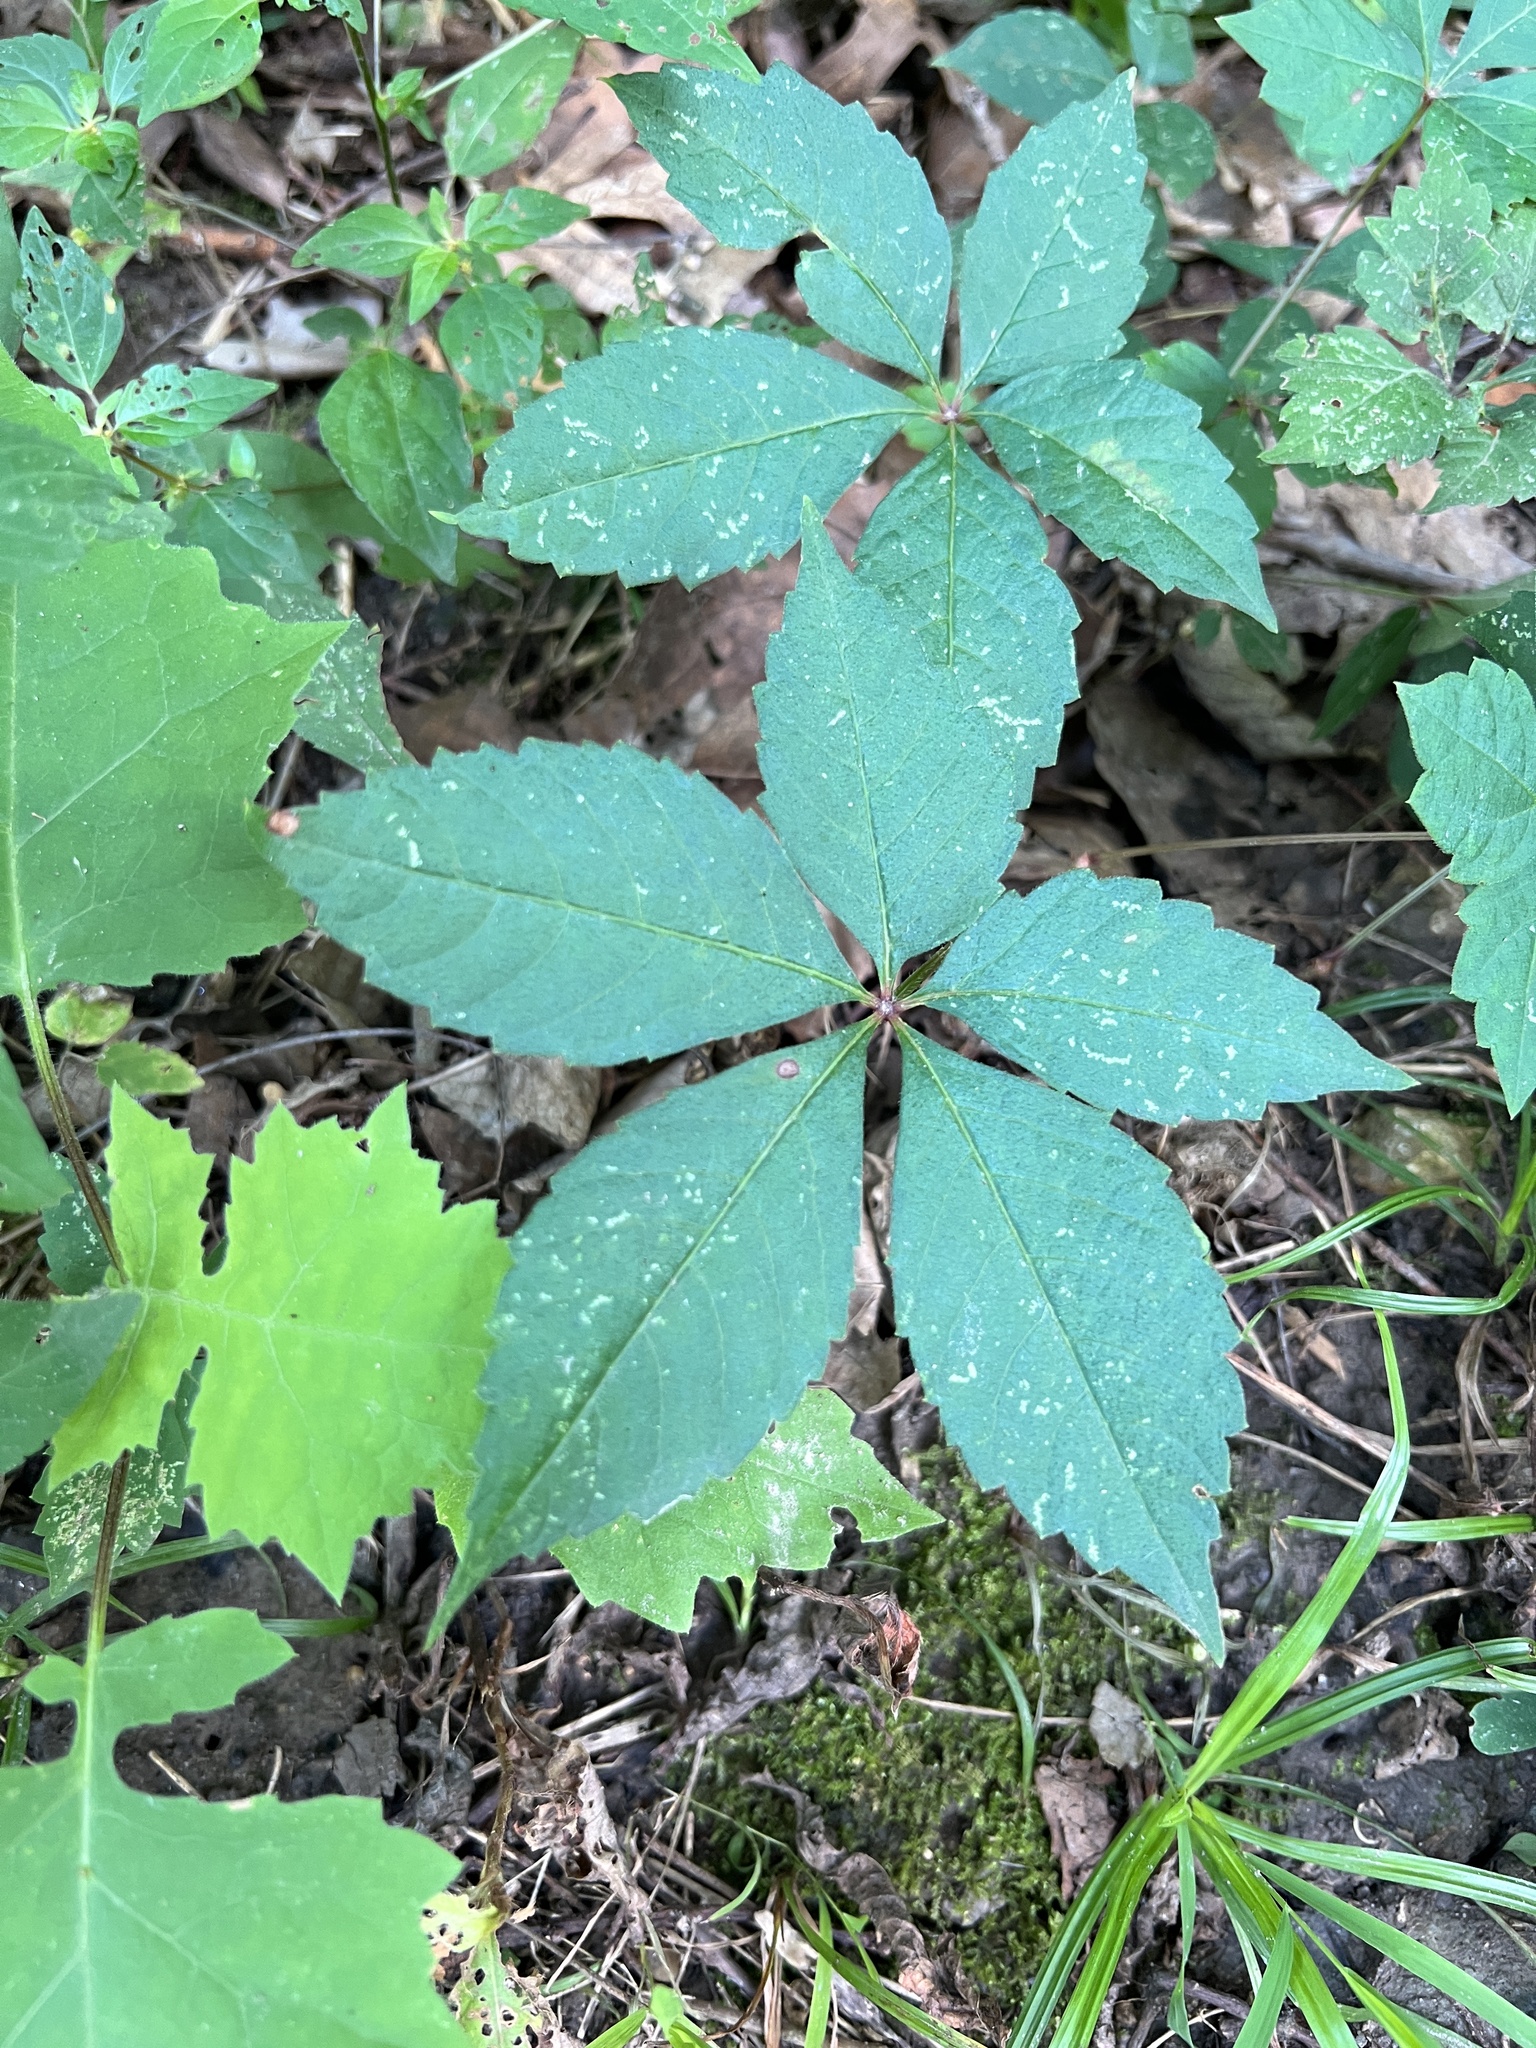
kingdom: Plantae
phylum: Tracheophyta
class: Magnoliopsida
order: Vitales
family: Vitaceae
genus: Parthenocissus
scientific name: Parthenocissus quinquefolia
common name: Virginia-creeper
